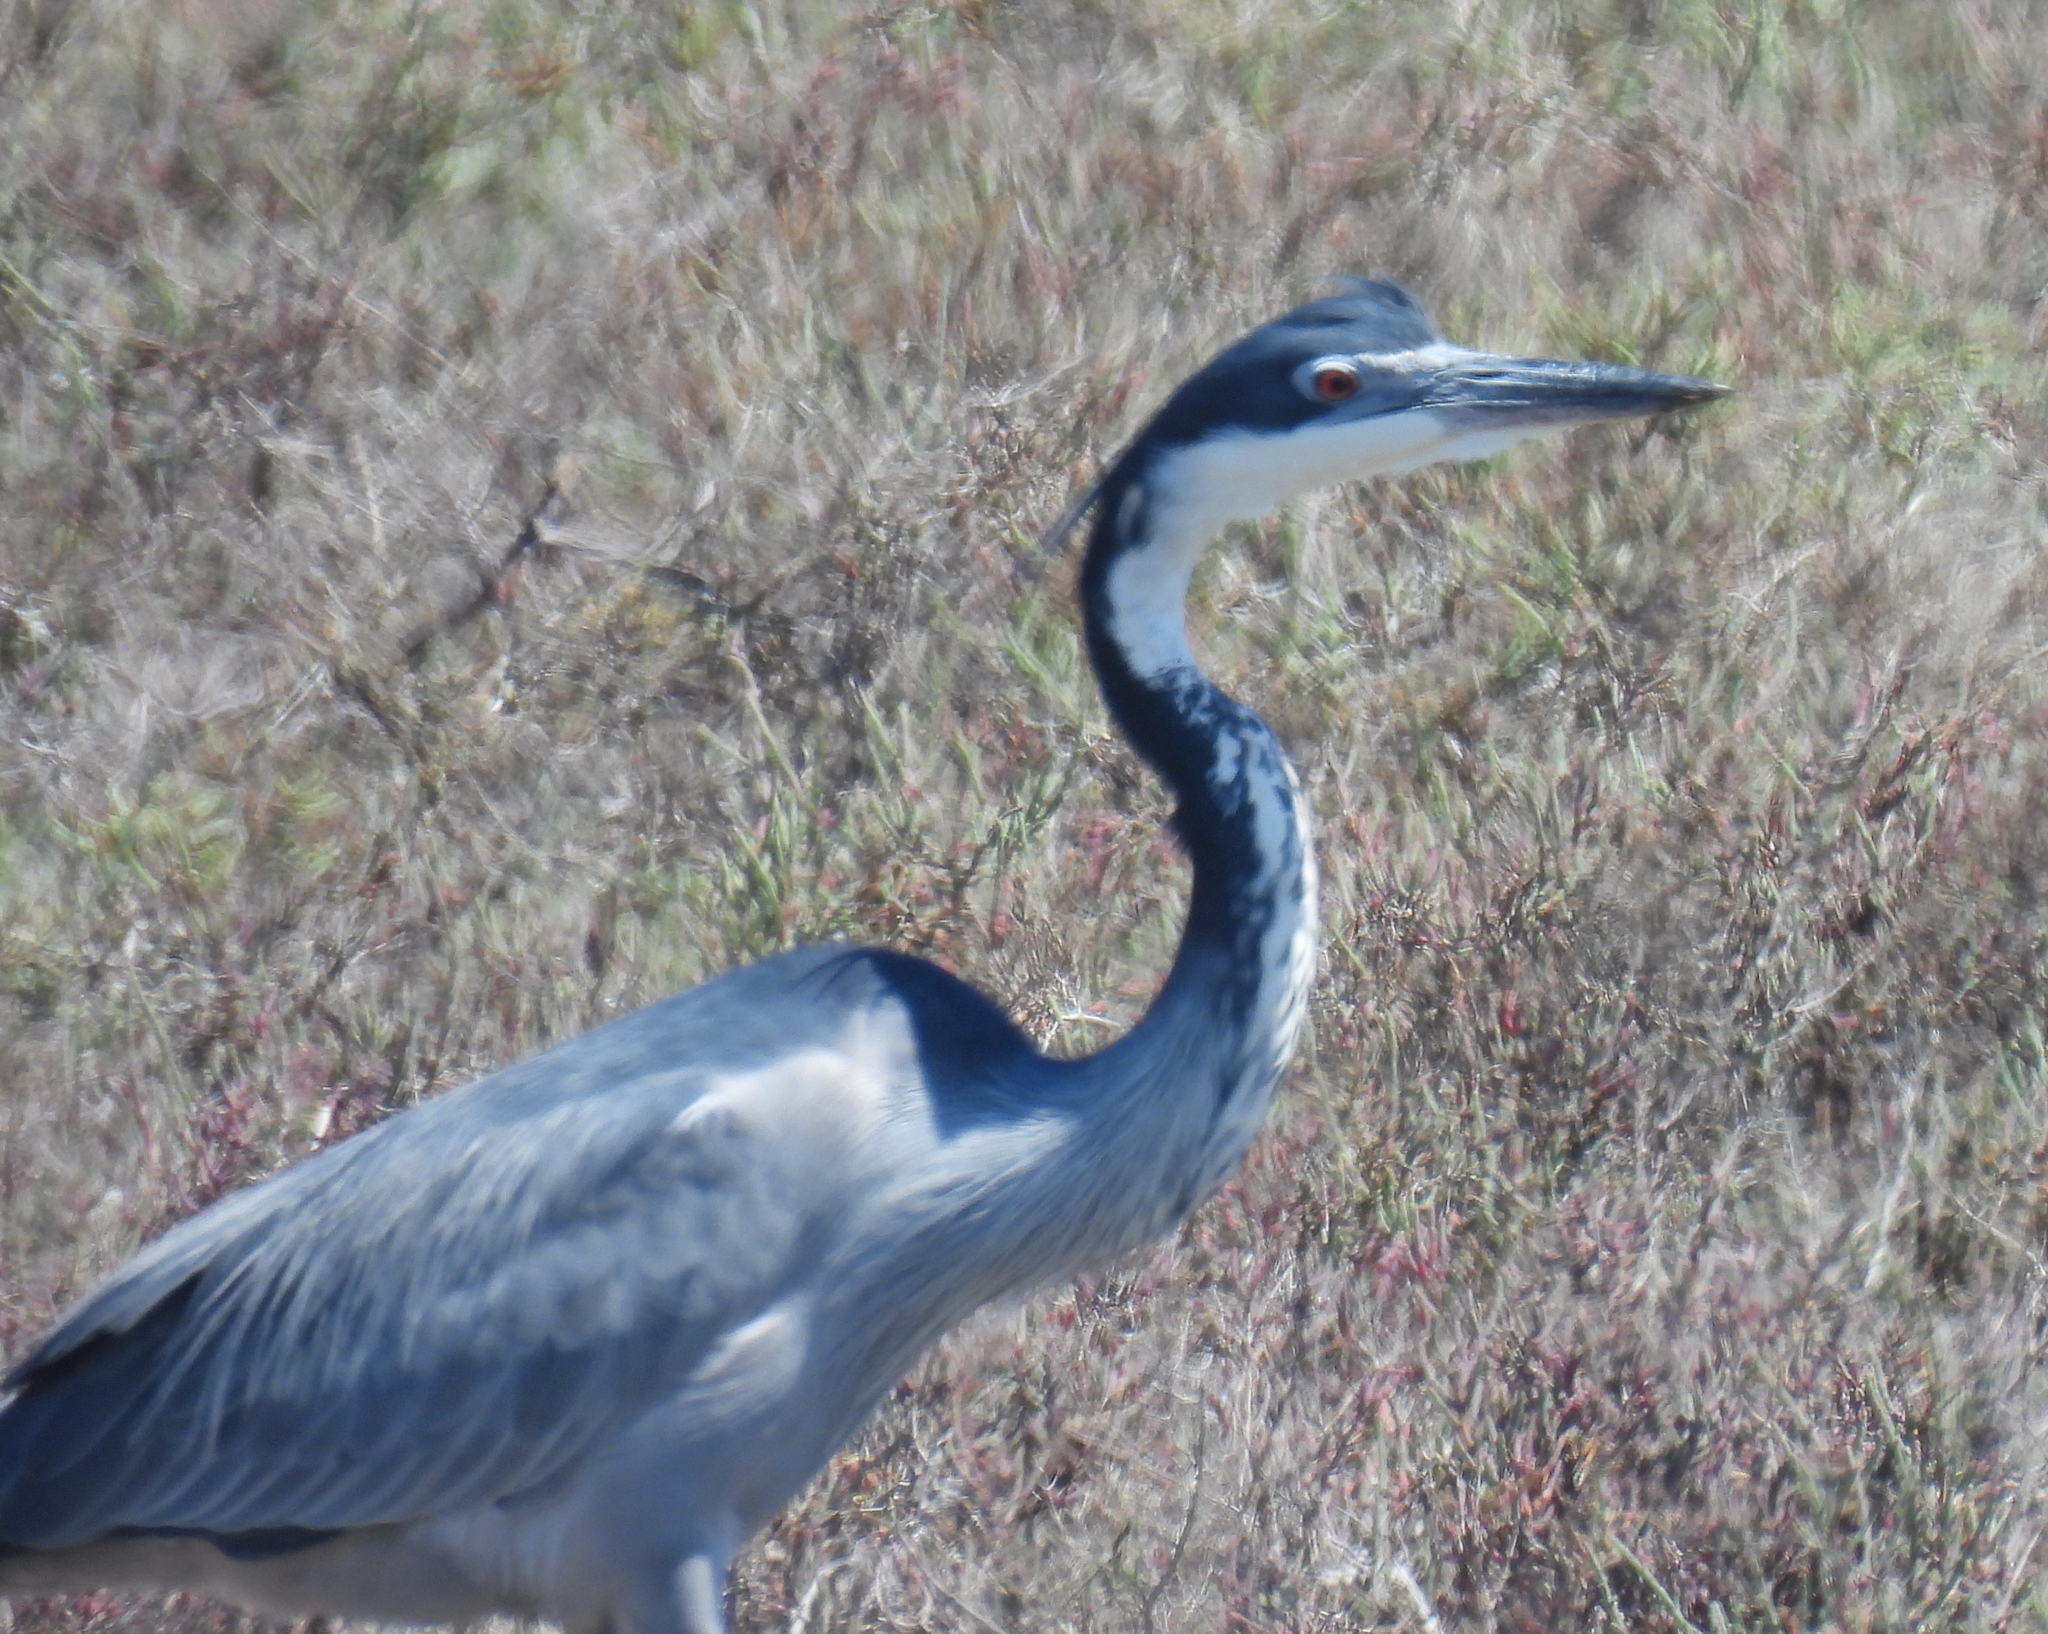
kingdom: Animalia
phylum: Chordata
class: Aves
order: Pelecaniformes
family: Ardeidae
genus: Ardea
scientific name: Ardea melanocephala
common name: Black-headed heron
